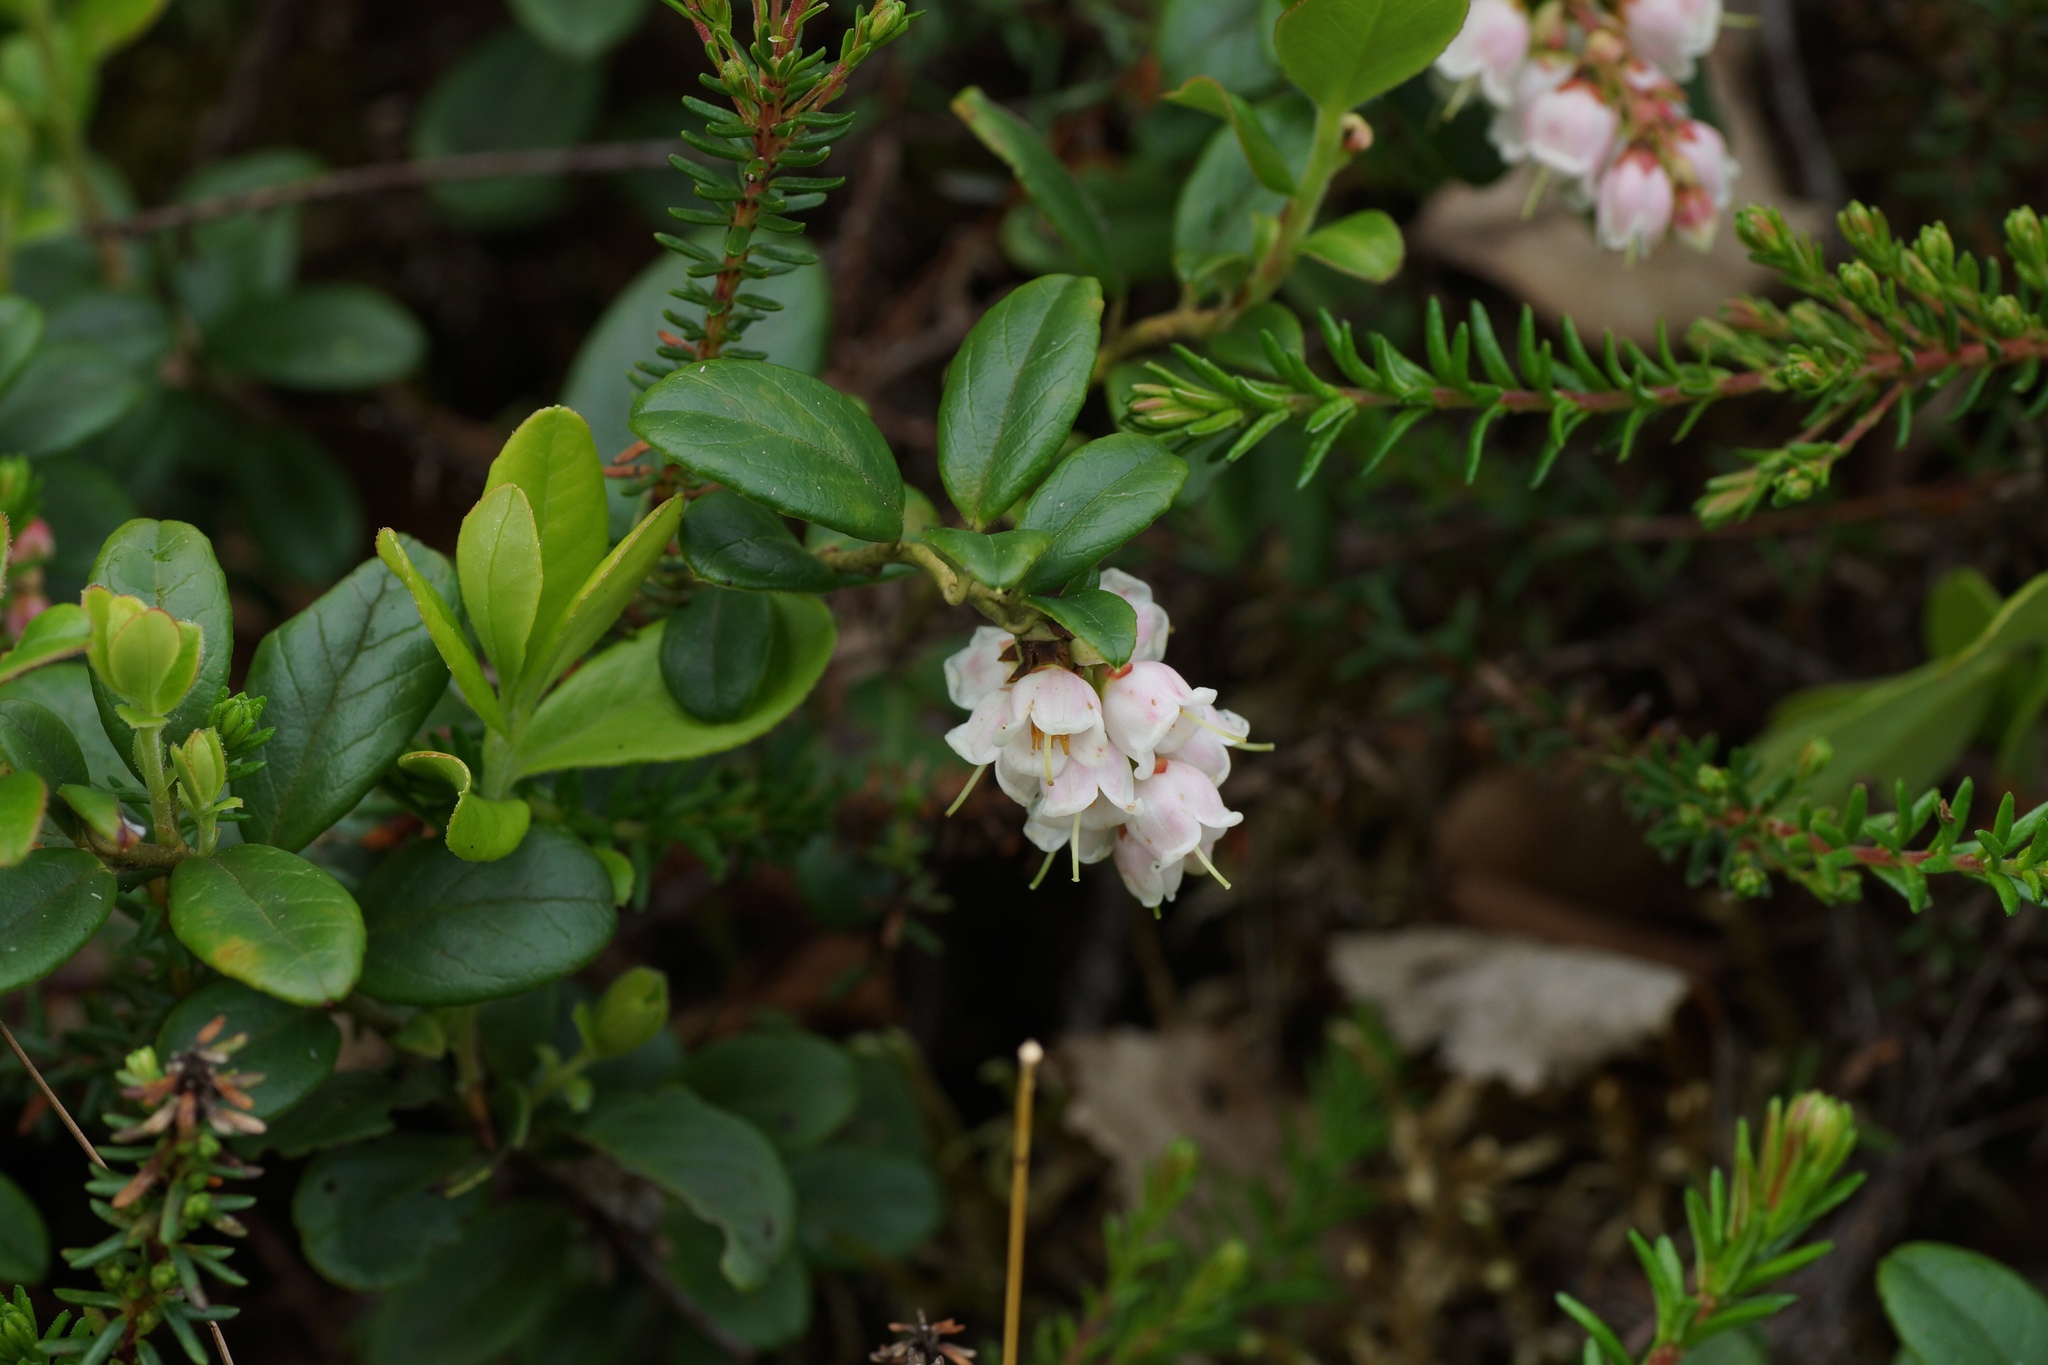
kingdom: Plantae
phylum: Tracheophyta
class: Magnoliopsida
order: Ericales
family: Ericaceae
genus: Vaccinium
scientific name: Vaccinium vitis-idaea
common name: Cowberry
